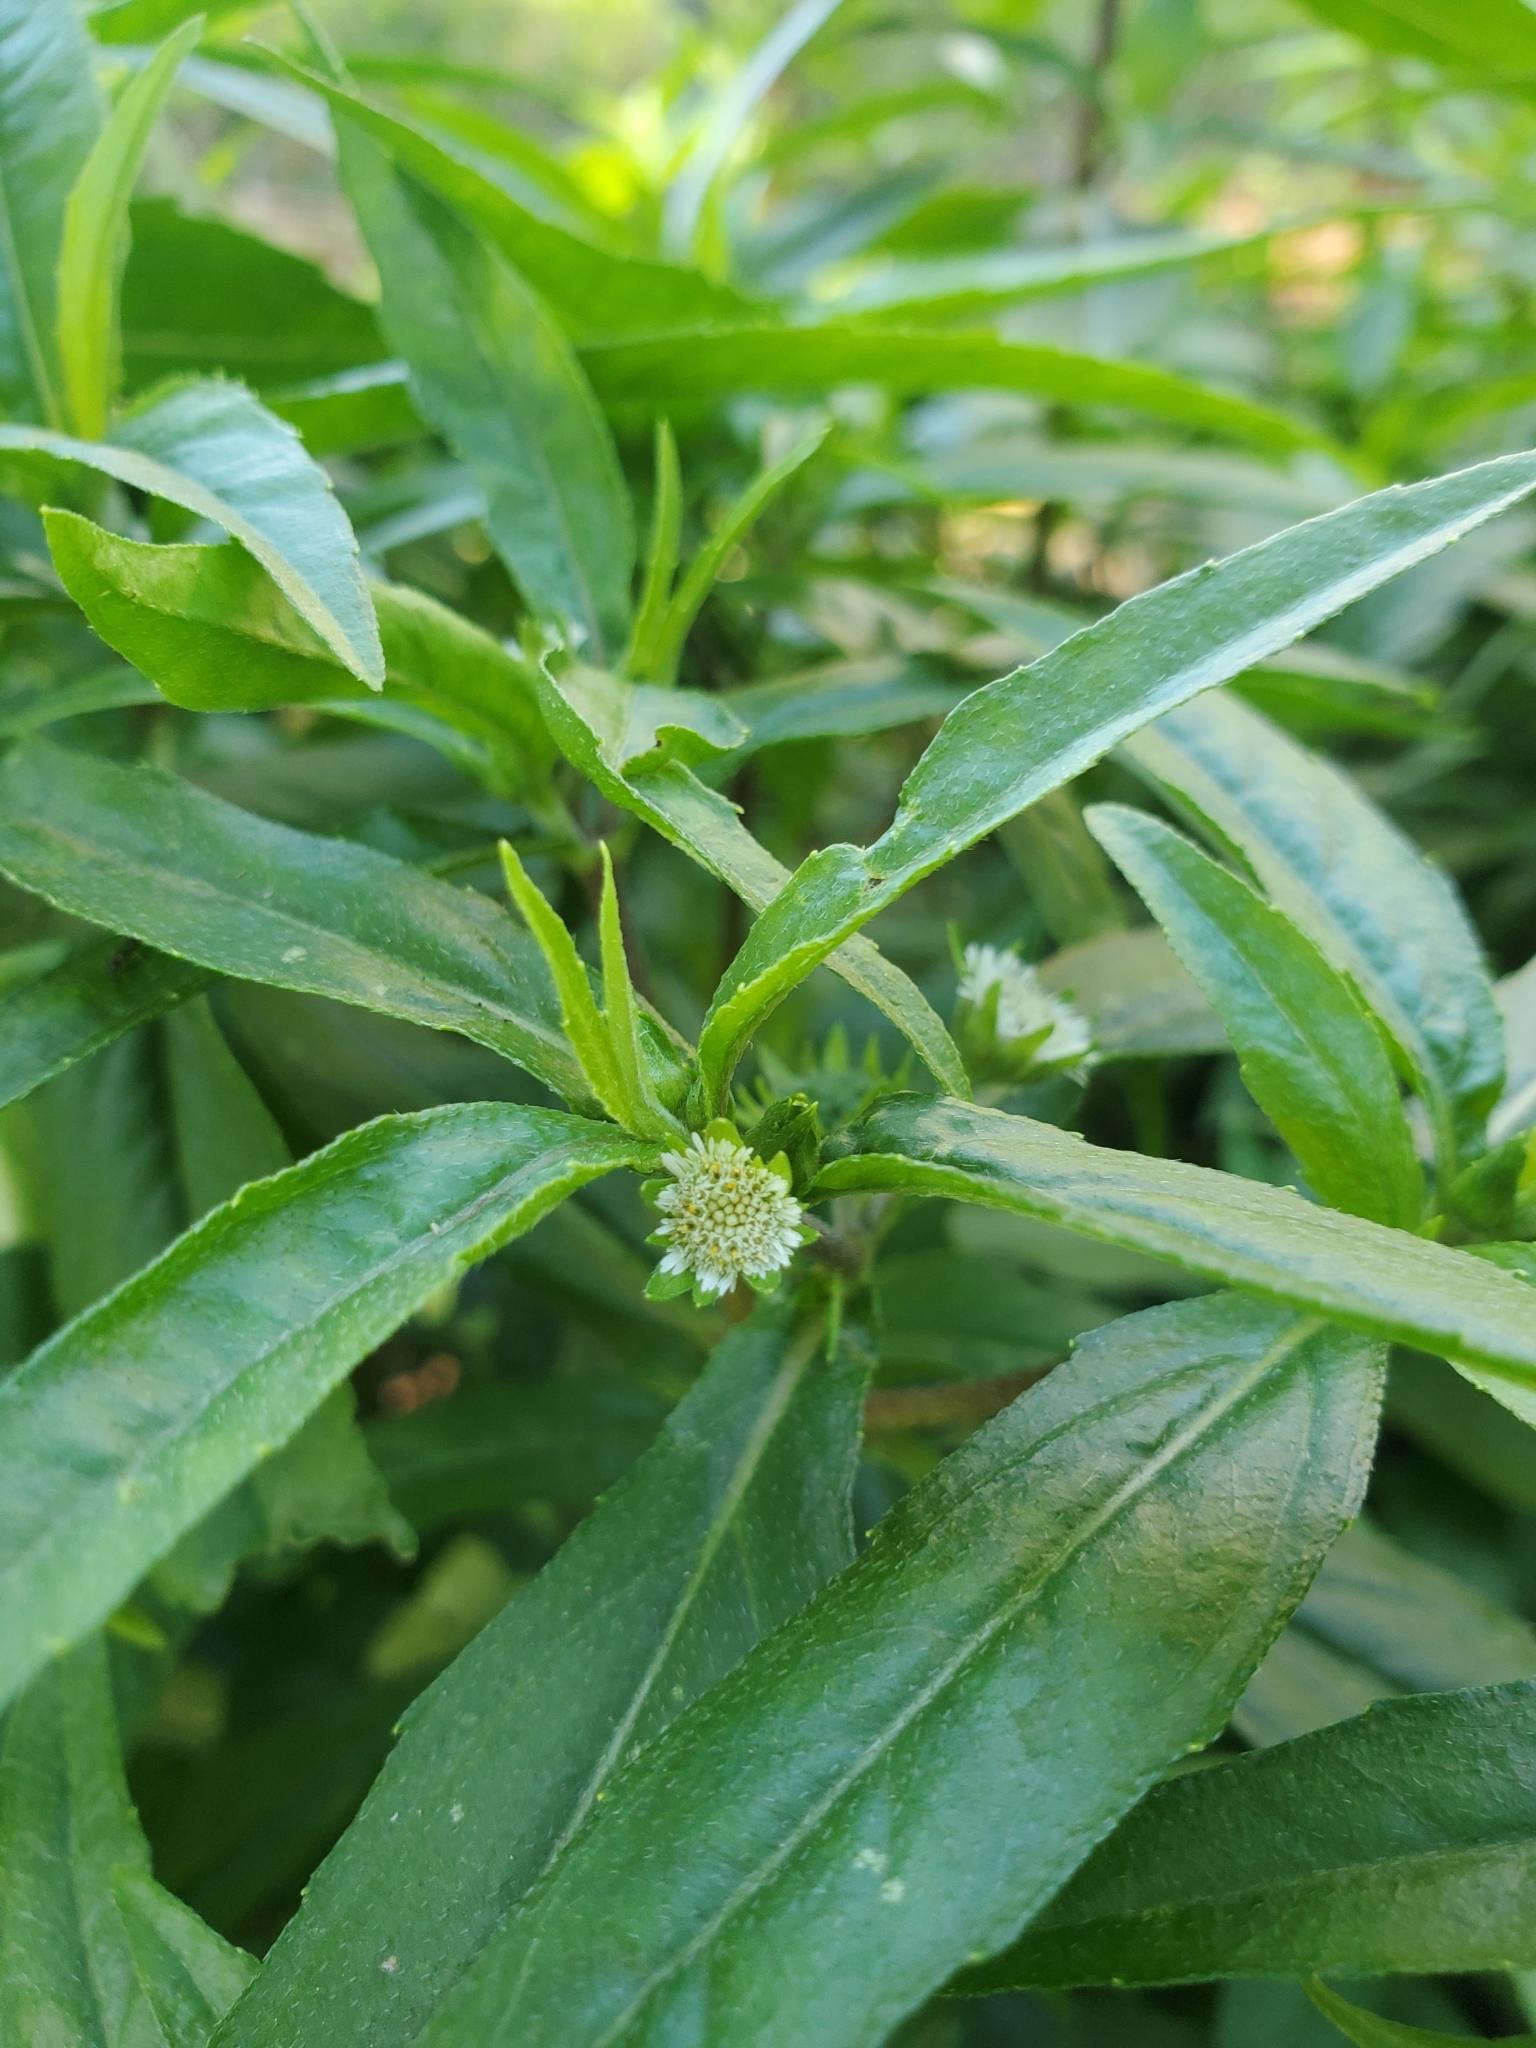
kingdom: Plantae
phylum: Tracheophyta
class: Magnoliopsida
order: Asterales
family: Asteraceae
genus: Eclipta
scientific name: Eclipta prostrata
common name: False daisy
